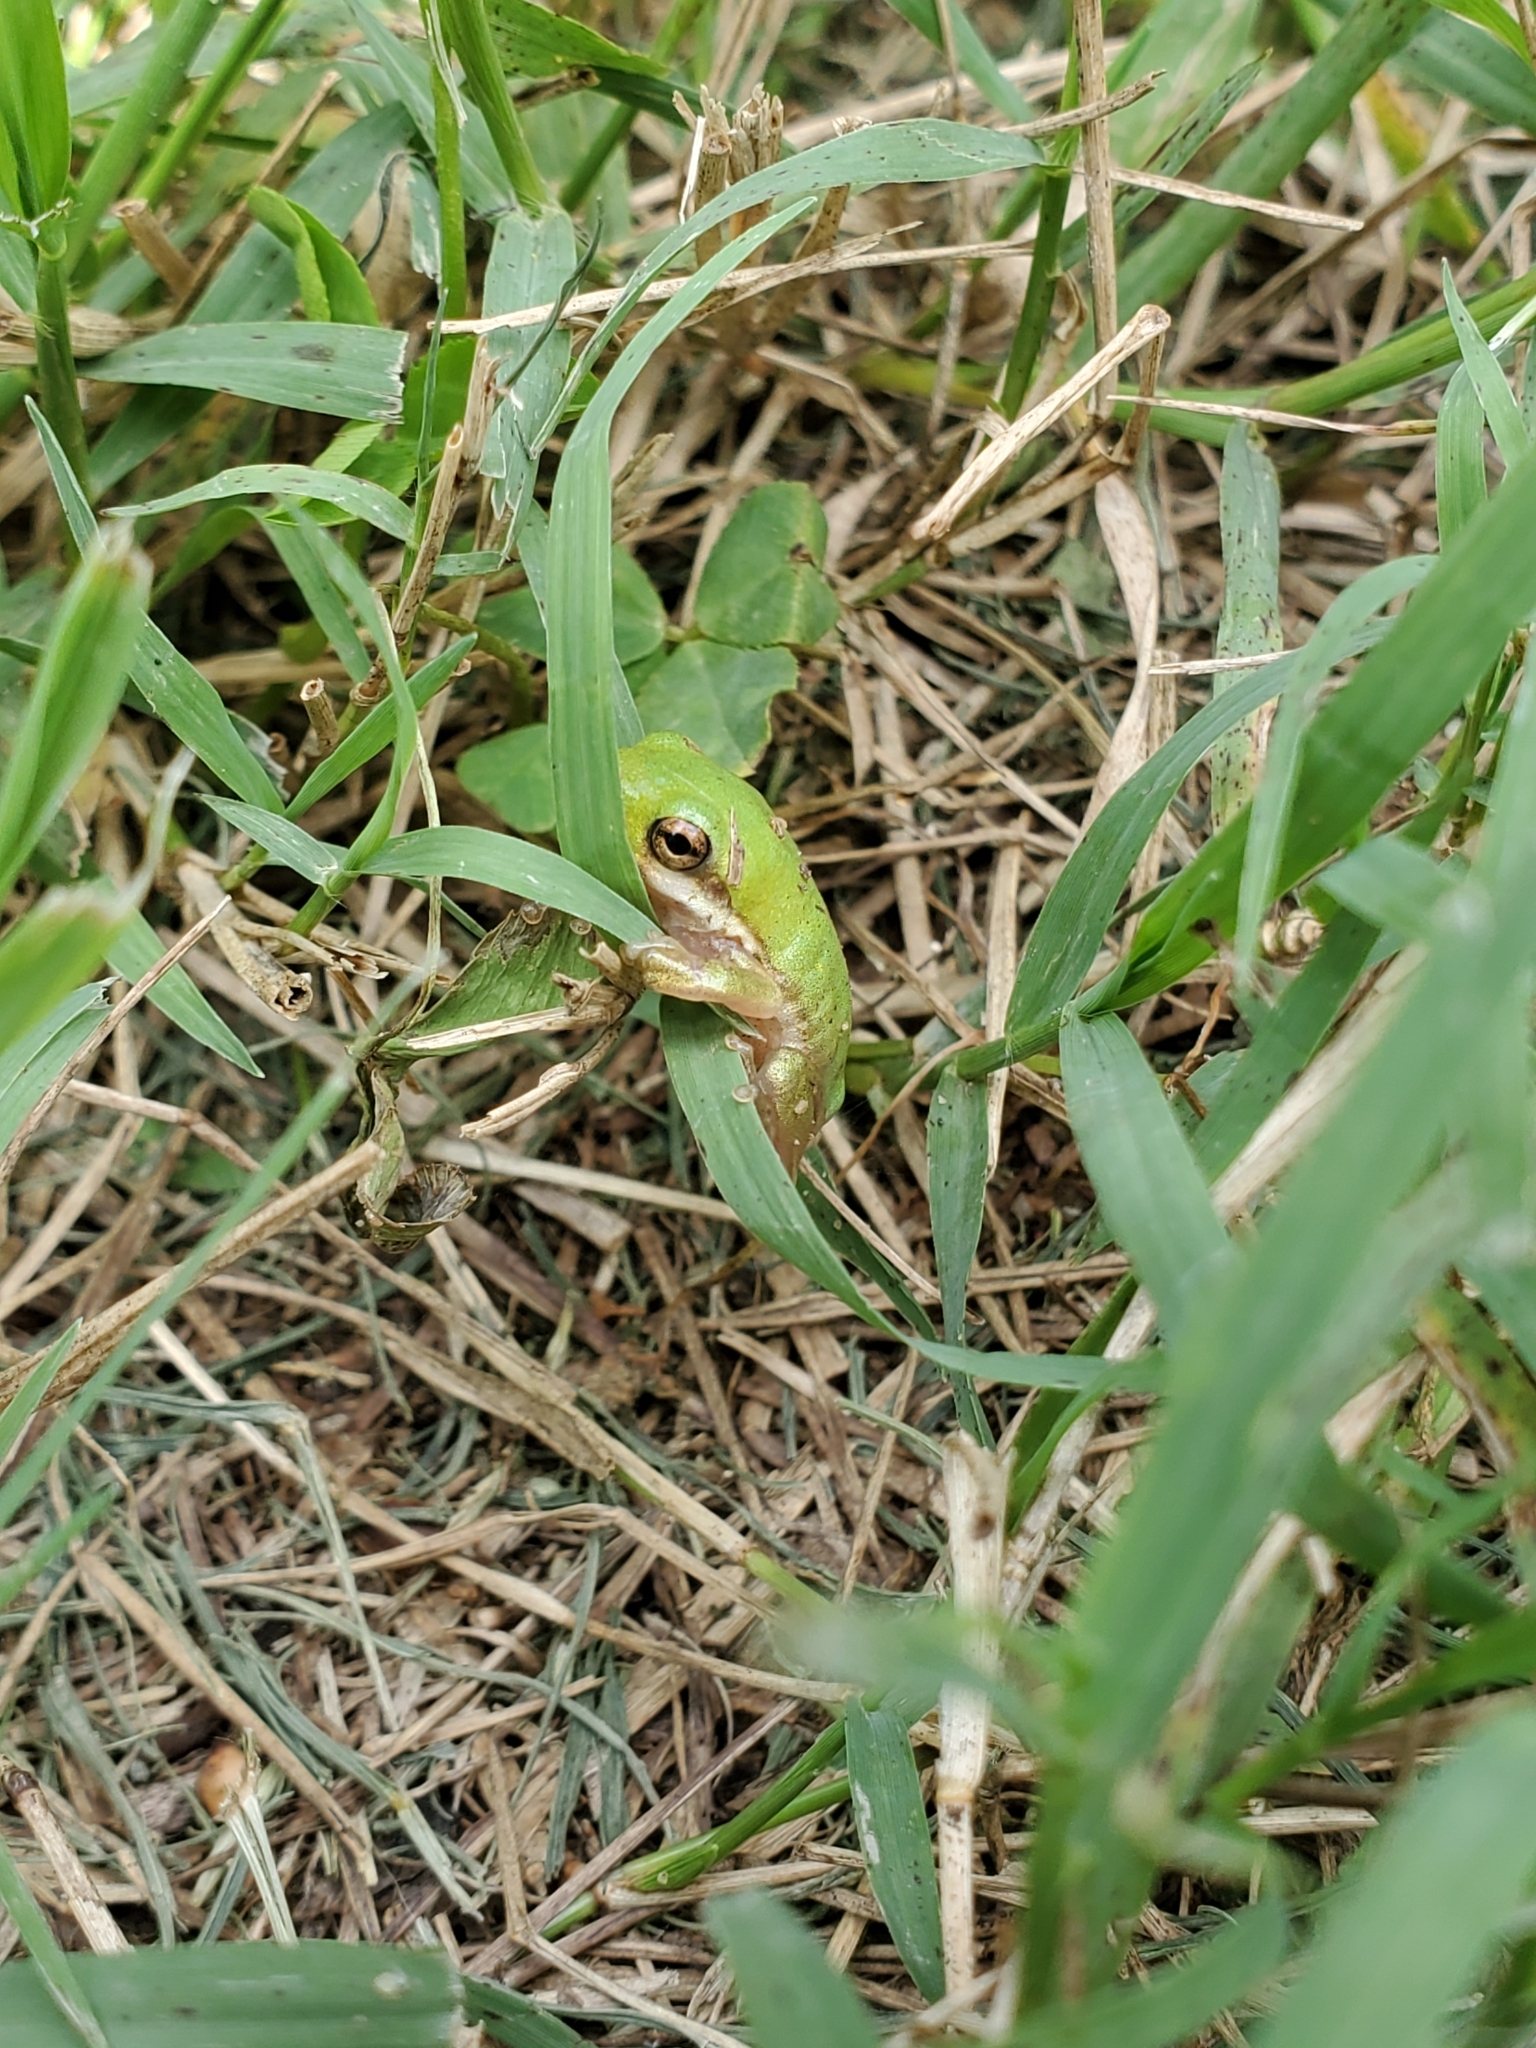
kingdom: Animalia
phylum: Chordata
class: Amphibia
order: Anura
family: Hylidae
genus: Dryophytes
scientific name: Dryophytes cinereus
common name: Green treefrog
